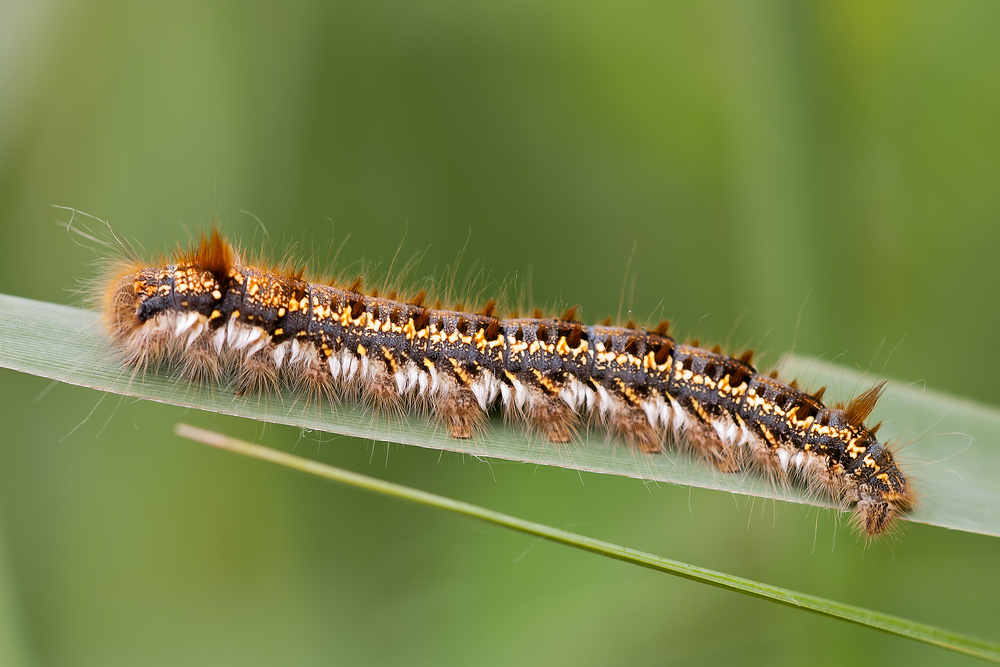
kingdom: Animalia
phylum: Arthropoda
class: Insecta
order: Lepidoptera
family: Lasiocampidae
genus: Euthrix
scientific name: Euthrix potatoria
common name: Drinker
